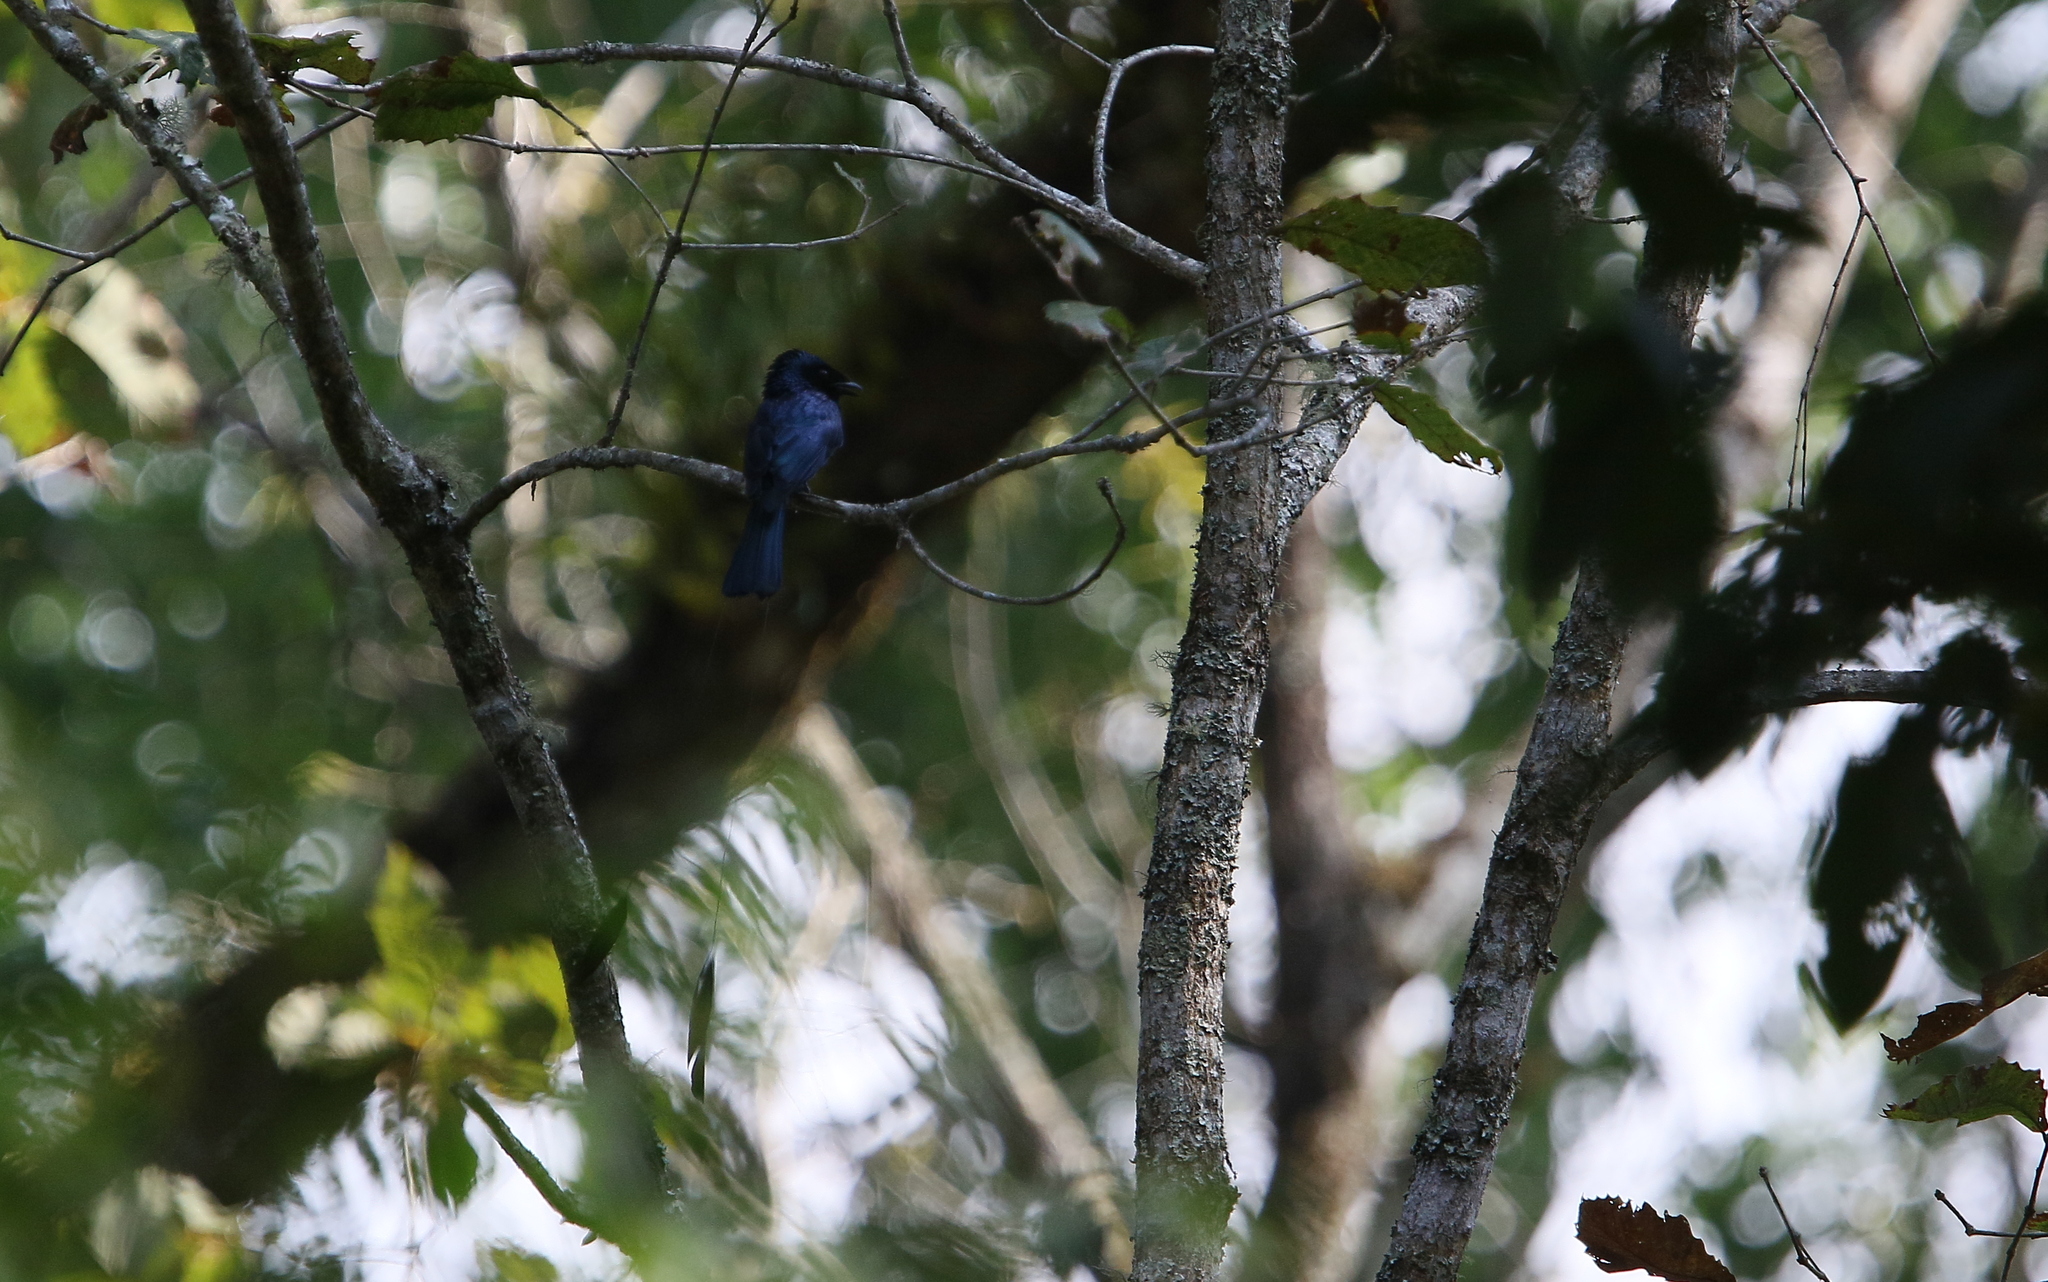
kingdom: Animalia
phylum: Chordata
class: Aves
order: Passeriformes
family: Dicruridae
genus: Dicrurus
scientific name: Dicrurus remifer
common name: Lesser racket-tailed drongo
